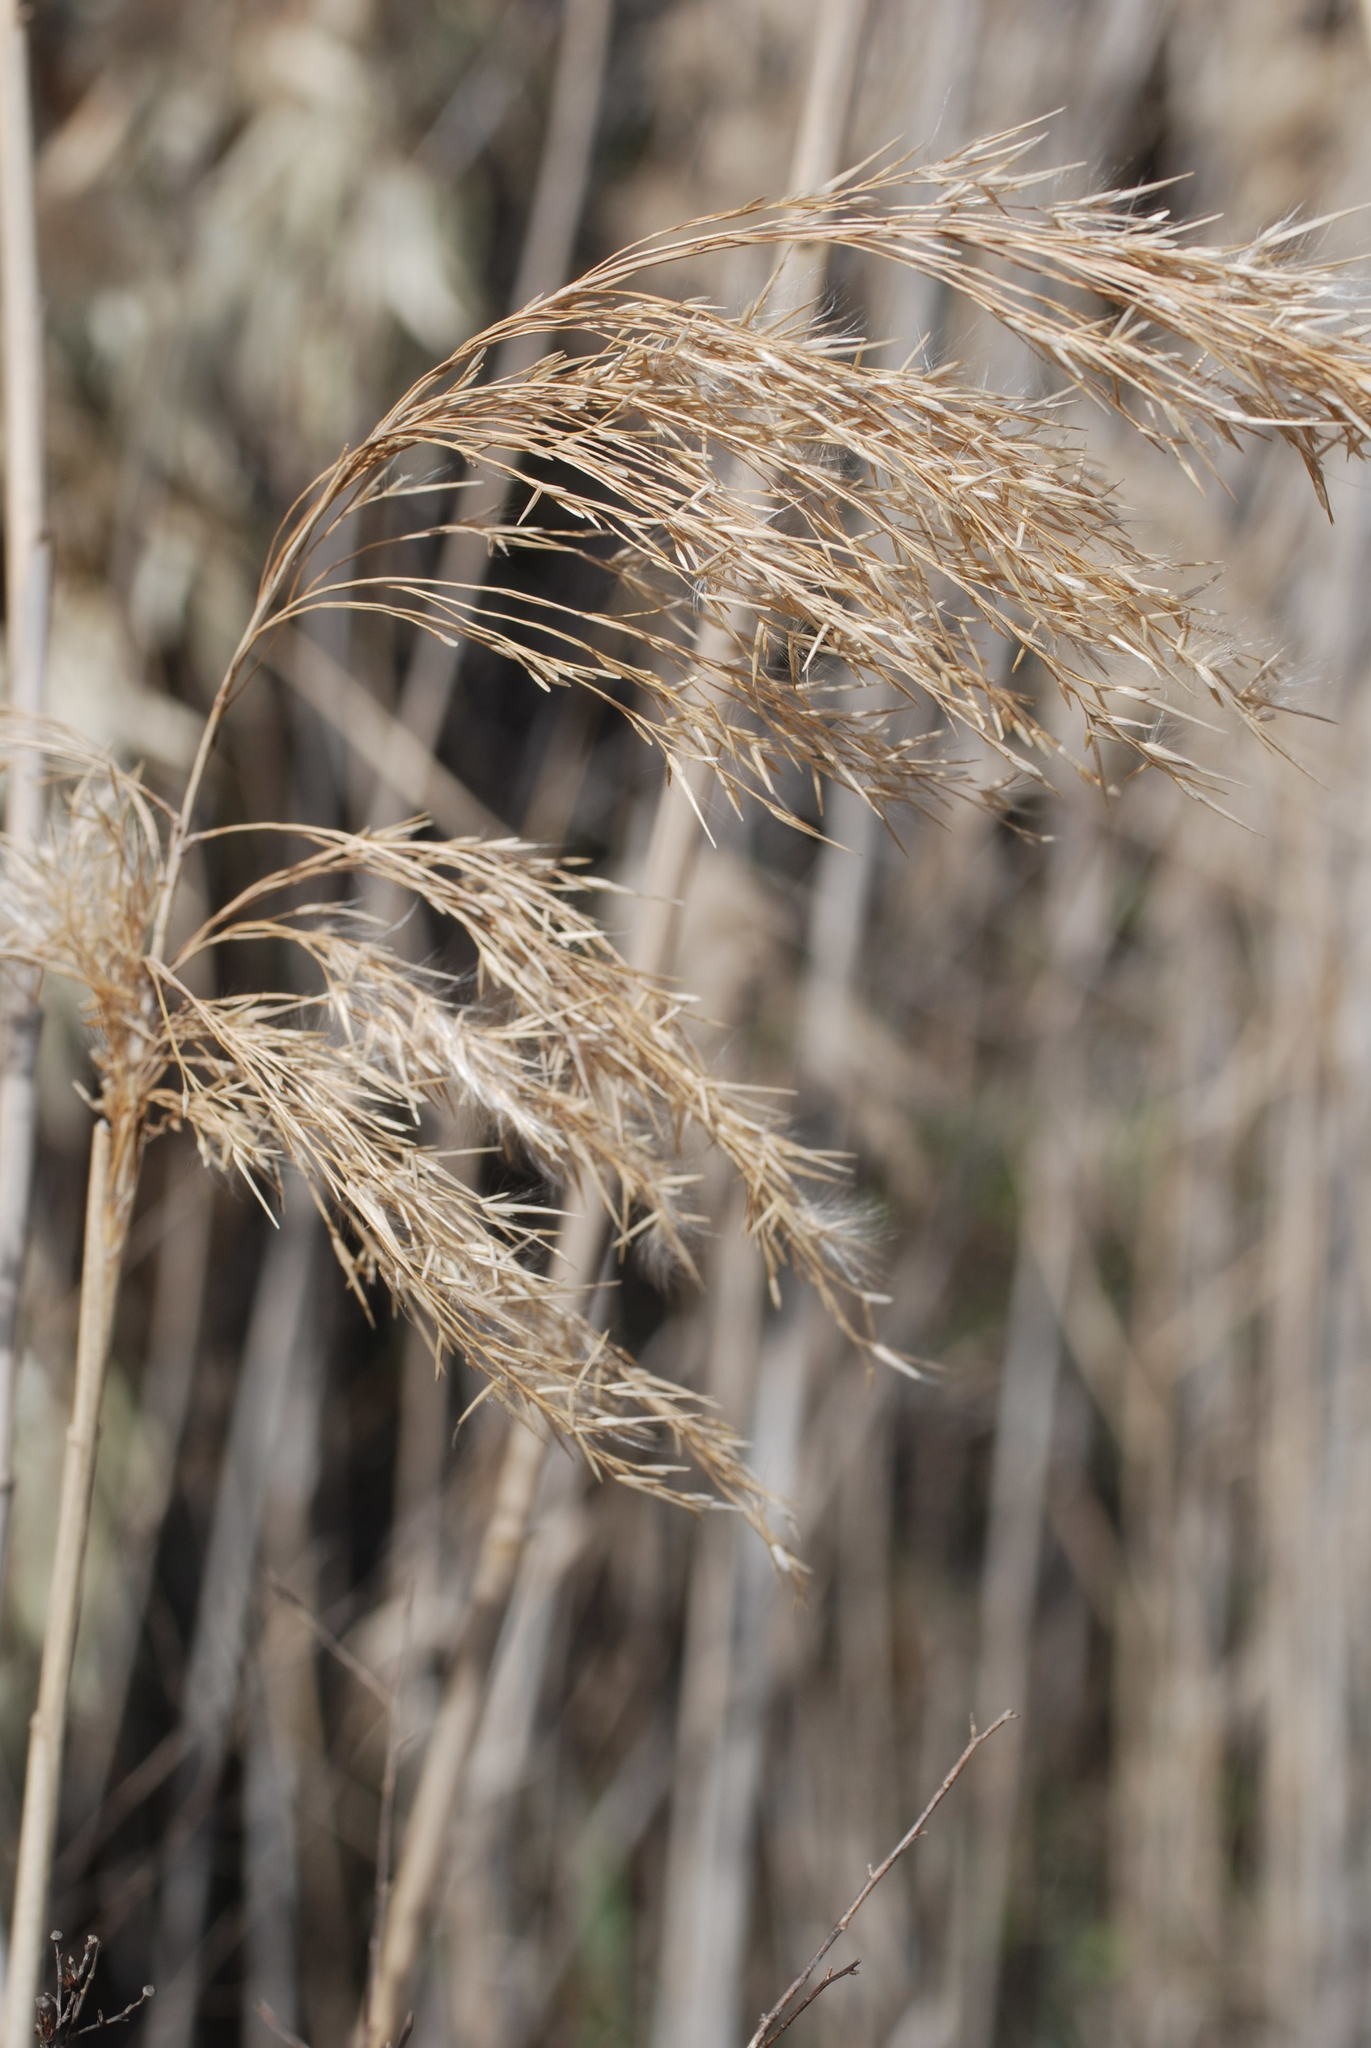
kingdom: Plantae
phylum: Tracheophyta
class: Liliopsida
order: Poales
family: Poaceae
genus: Phragmites
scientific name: Phragmites australis
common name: Common reed
